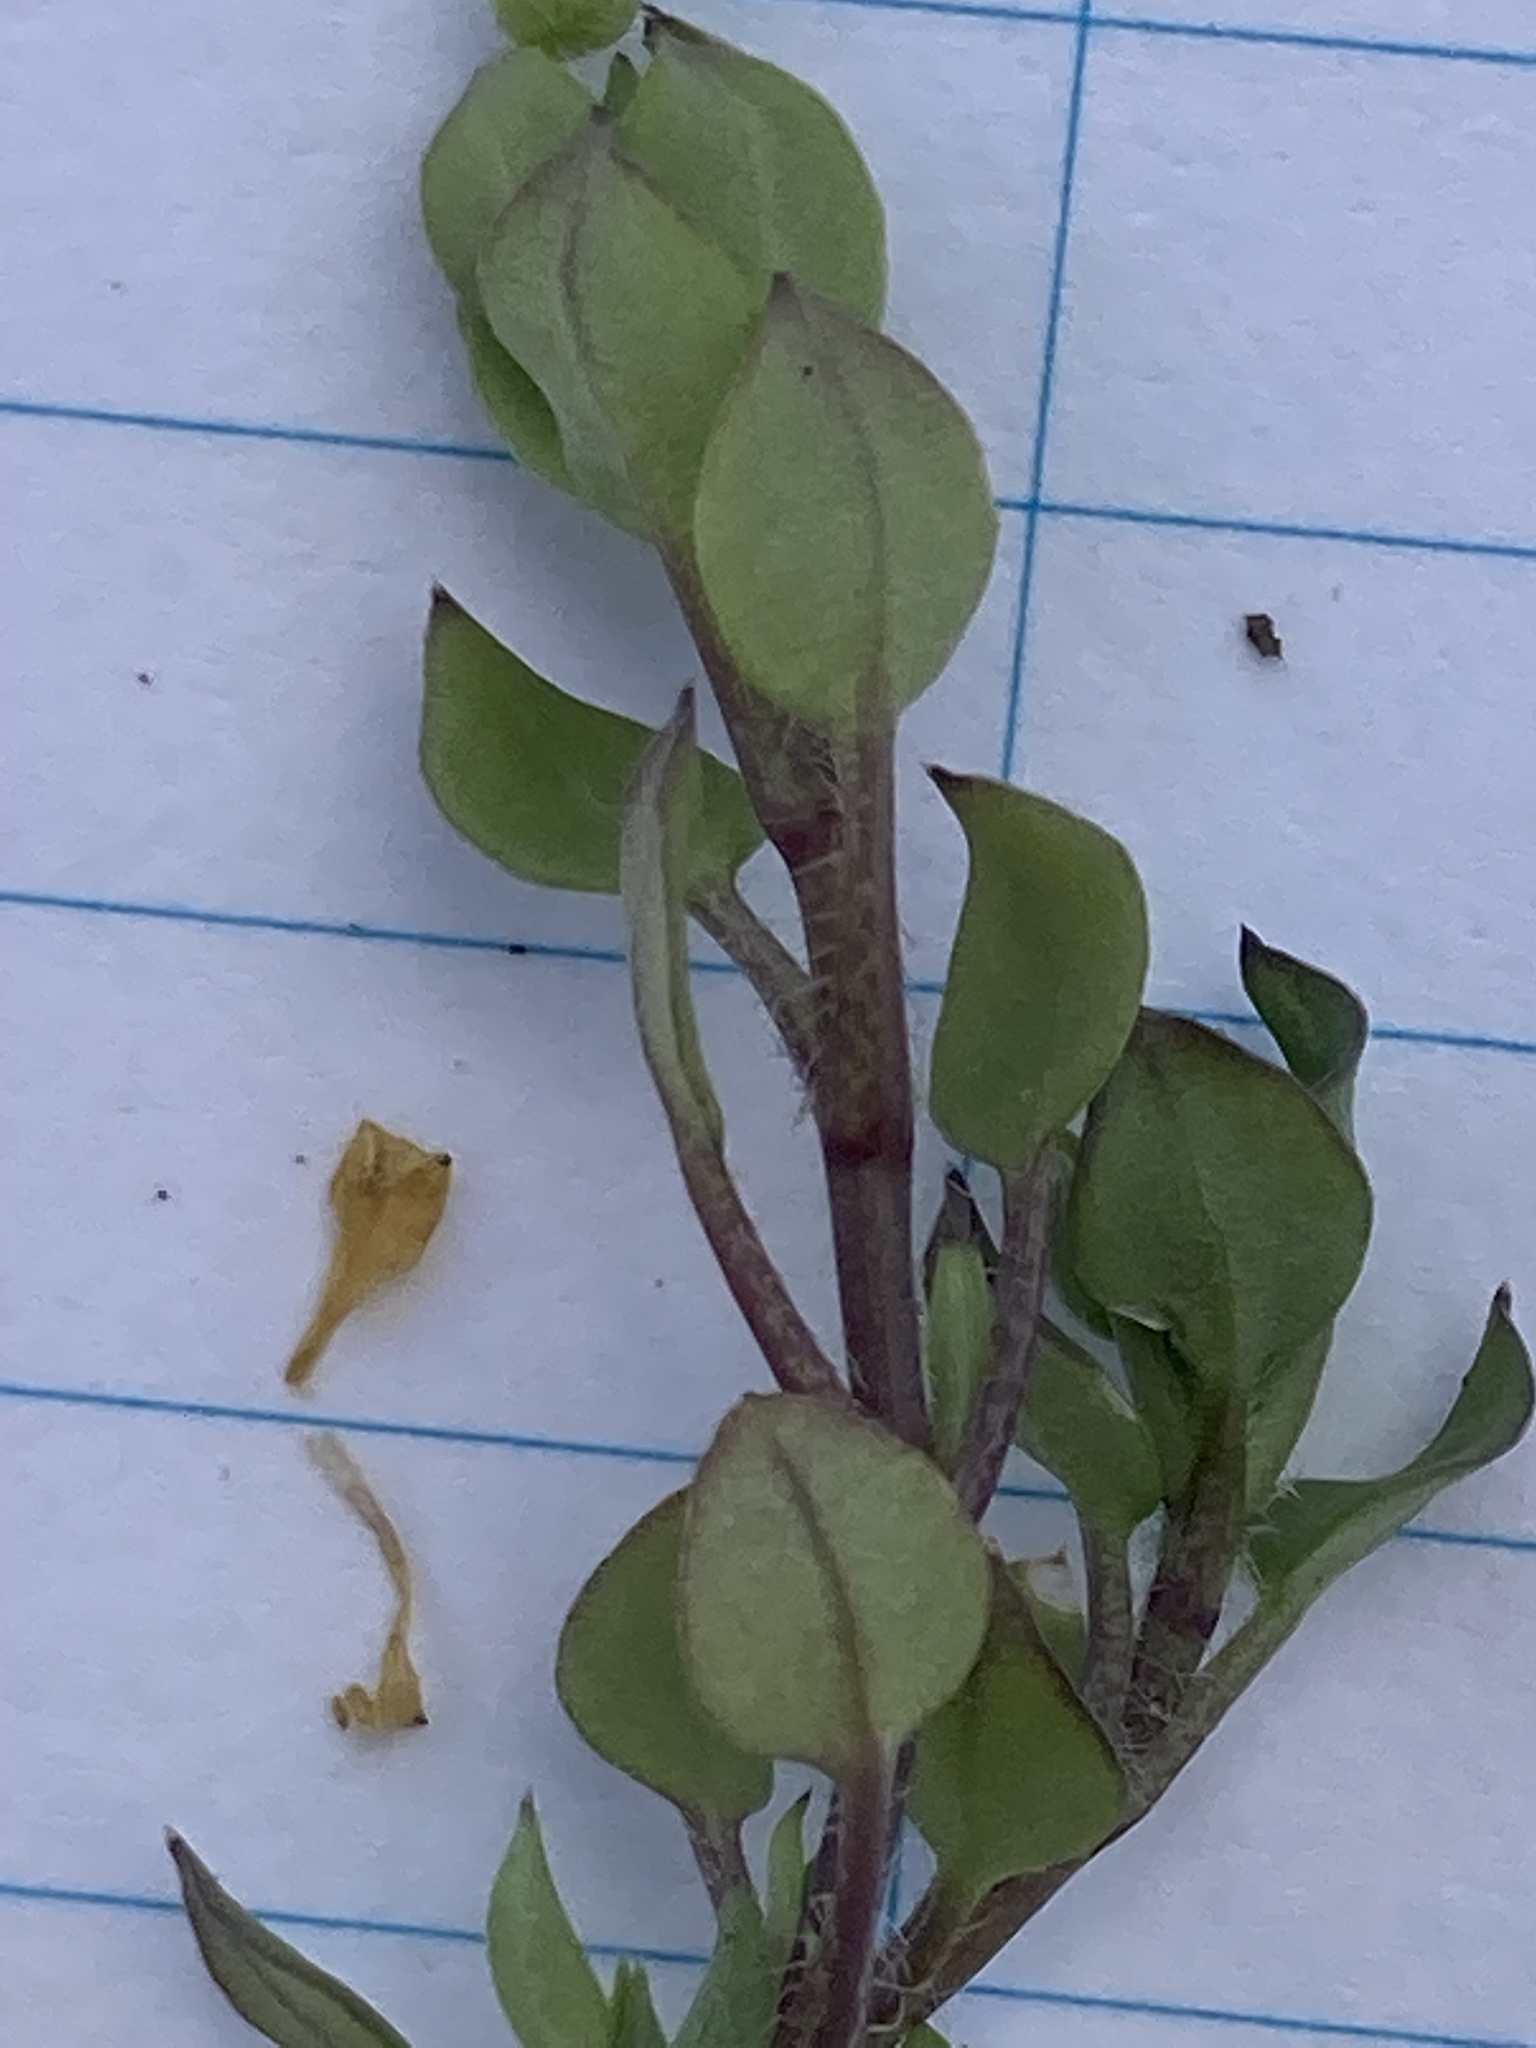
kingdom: Plantae
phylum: Tracheophyta
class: Magnoliopsida
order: Caryophyllales
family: Caryophyllaceae
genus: Stellaria
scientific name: Stellaria media
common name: Common chickweed
